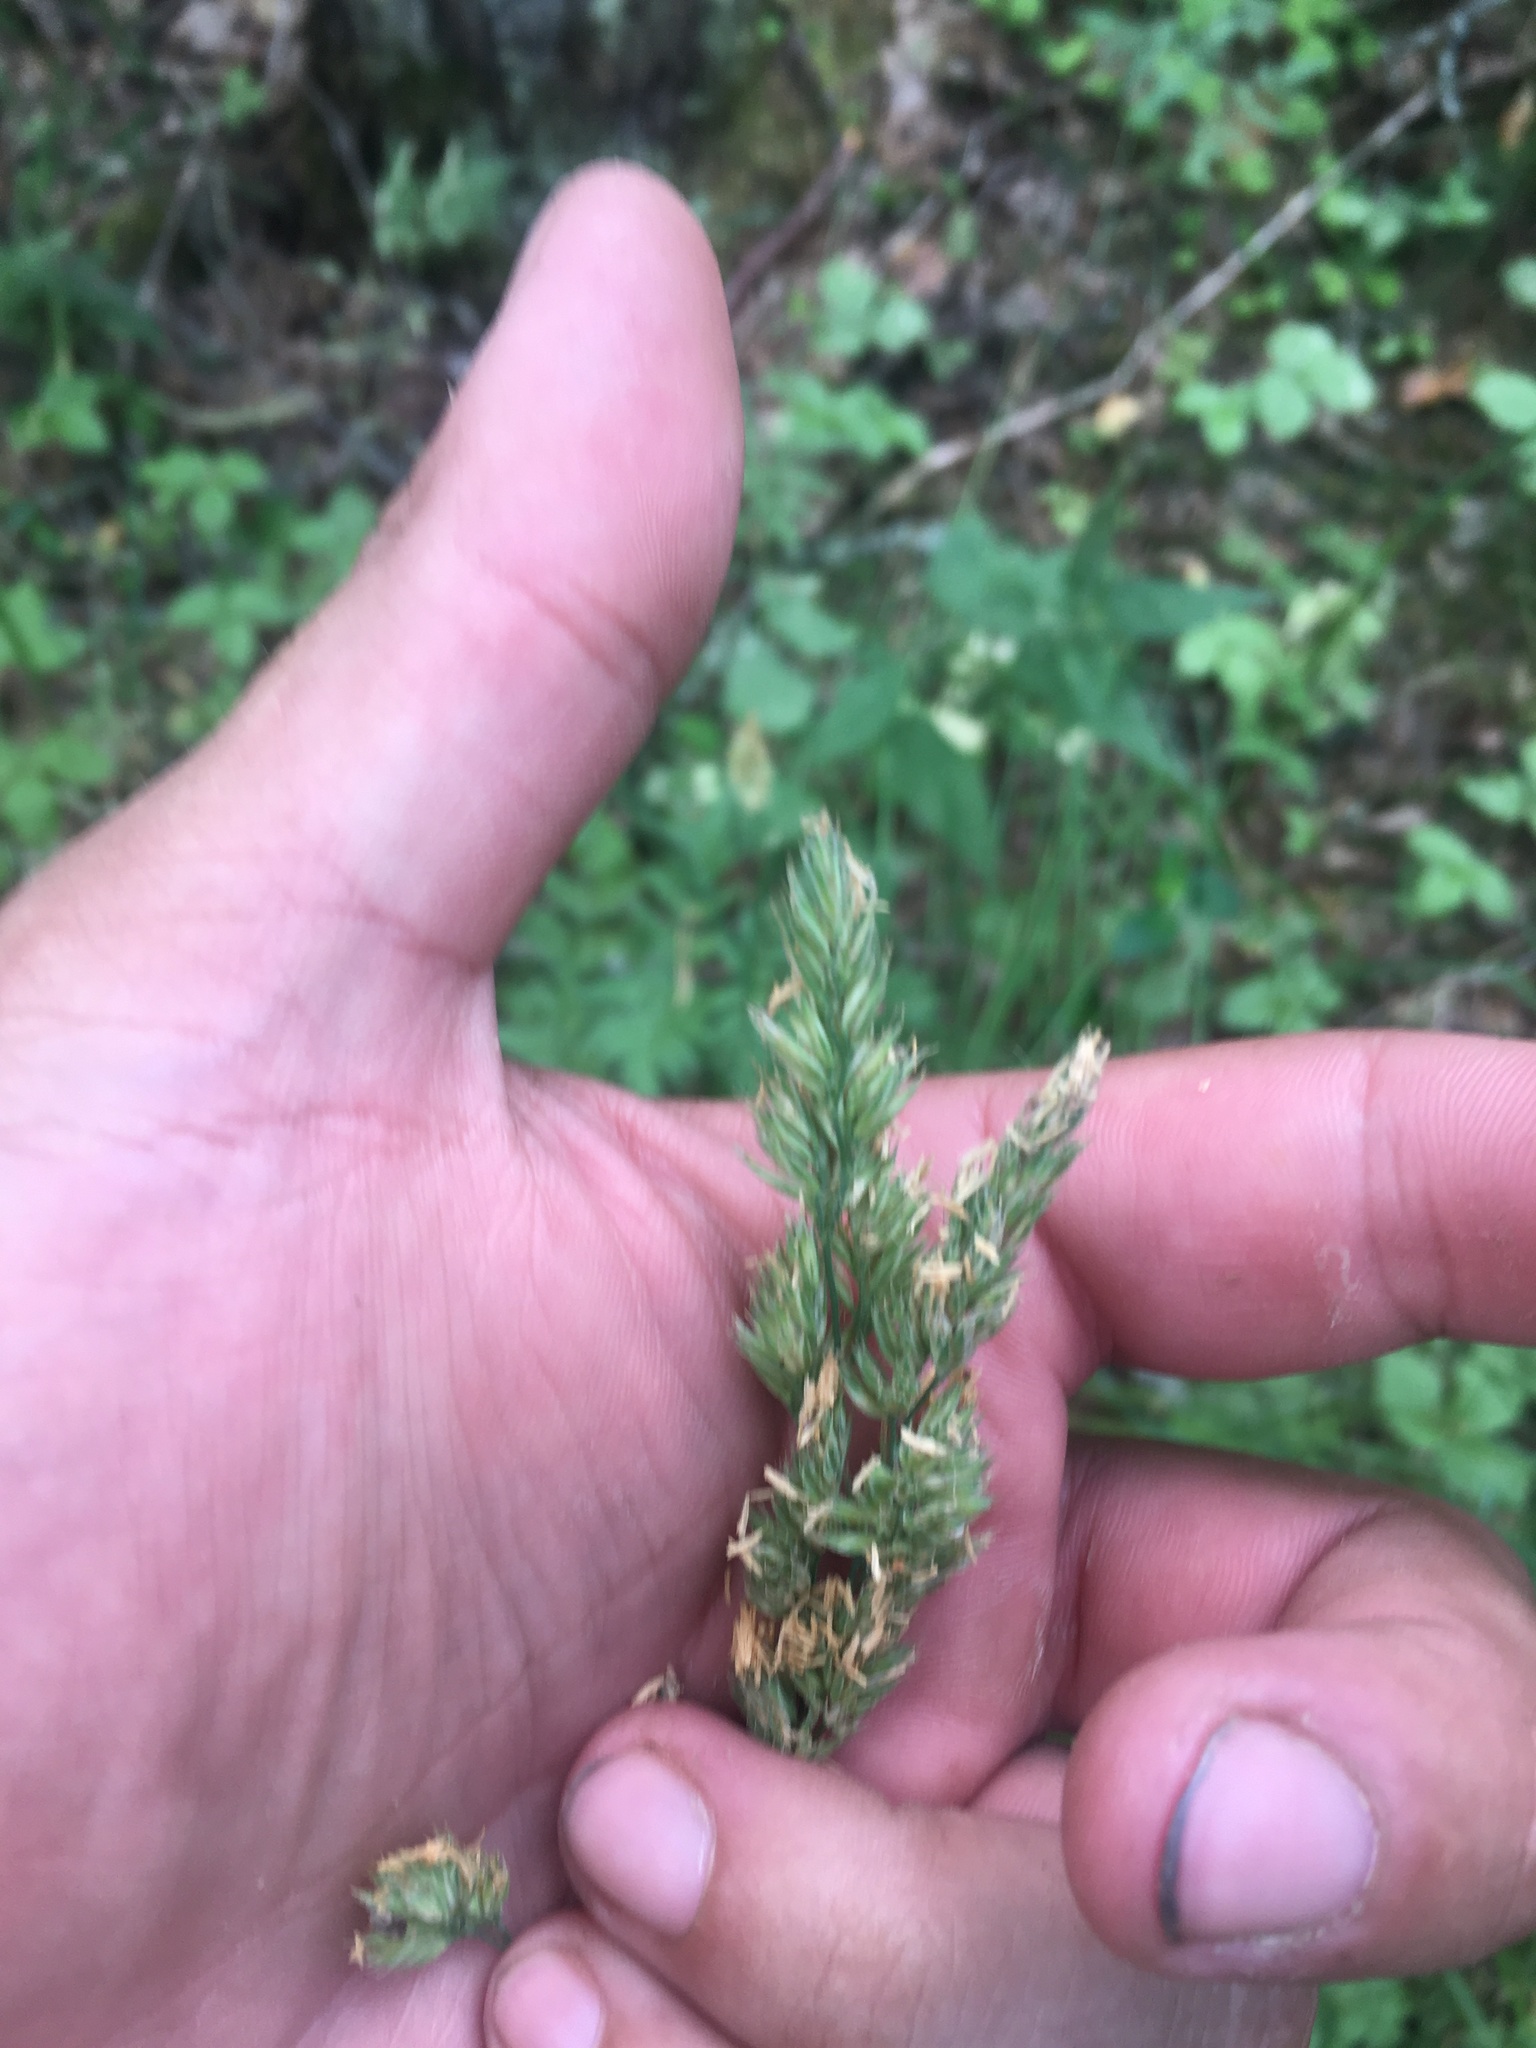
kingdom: Plantae
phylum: Tracheophyta
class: Liliopsida
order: Poales
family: Poaceae
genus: Dactylis
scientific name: Dactylis glomerata
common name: Orchardgrass
